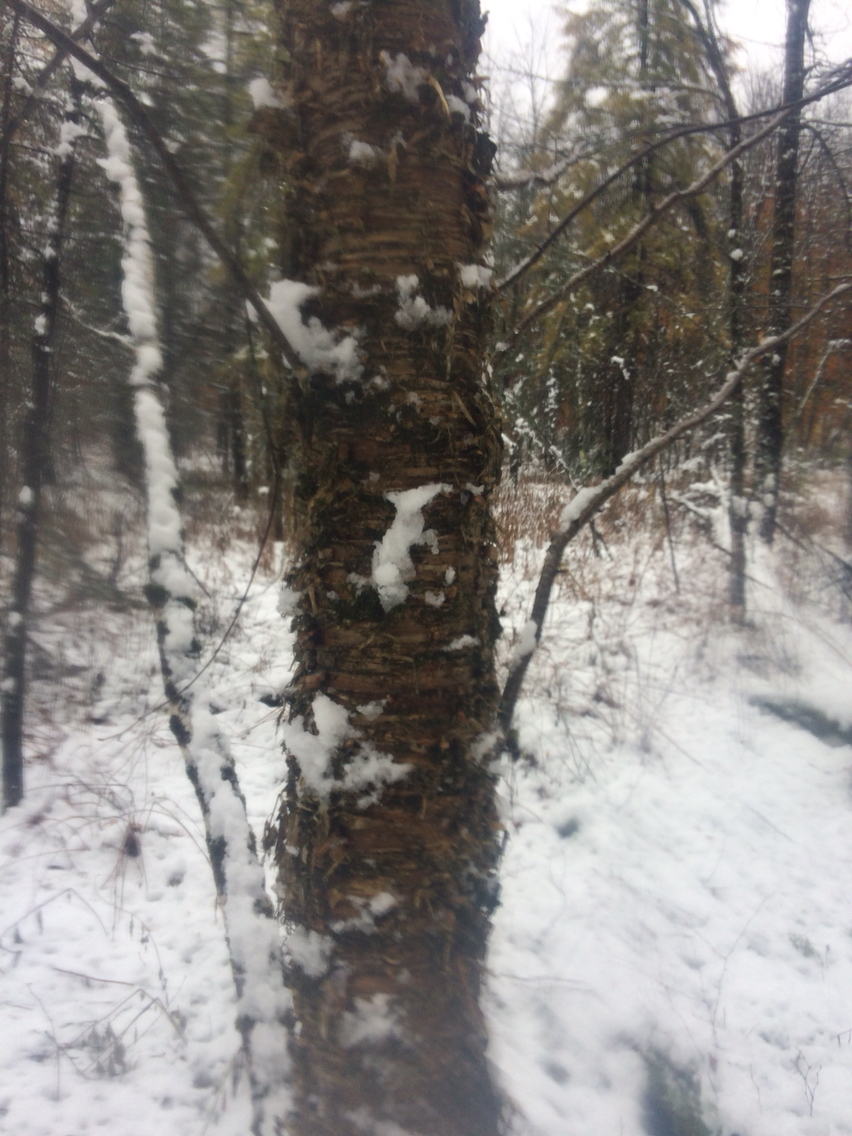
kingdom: Plantae
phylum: Tracheophyta
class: Magnoliopsida
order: Fagales
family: Betulaceae
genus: Betula
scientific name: Betula alleghaniensis
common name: Yellow birch
